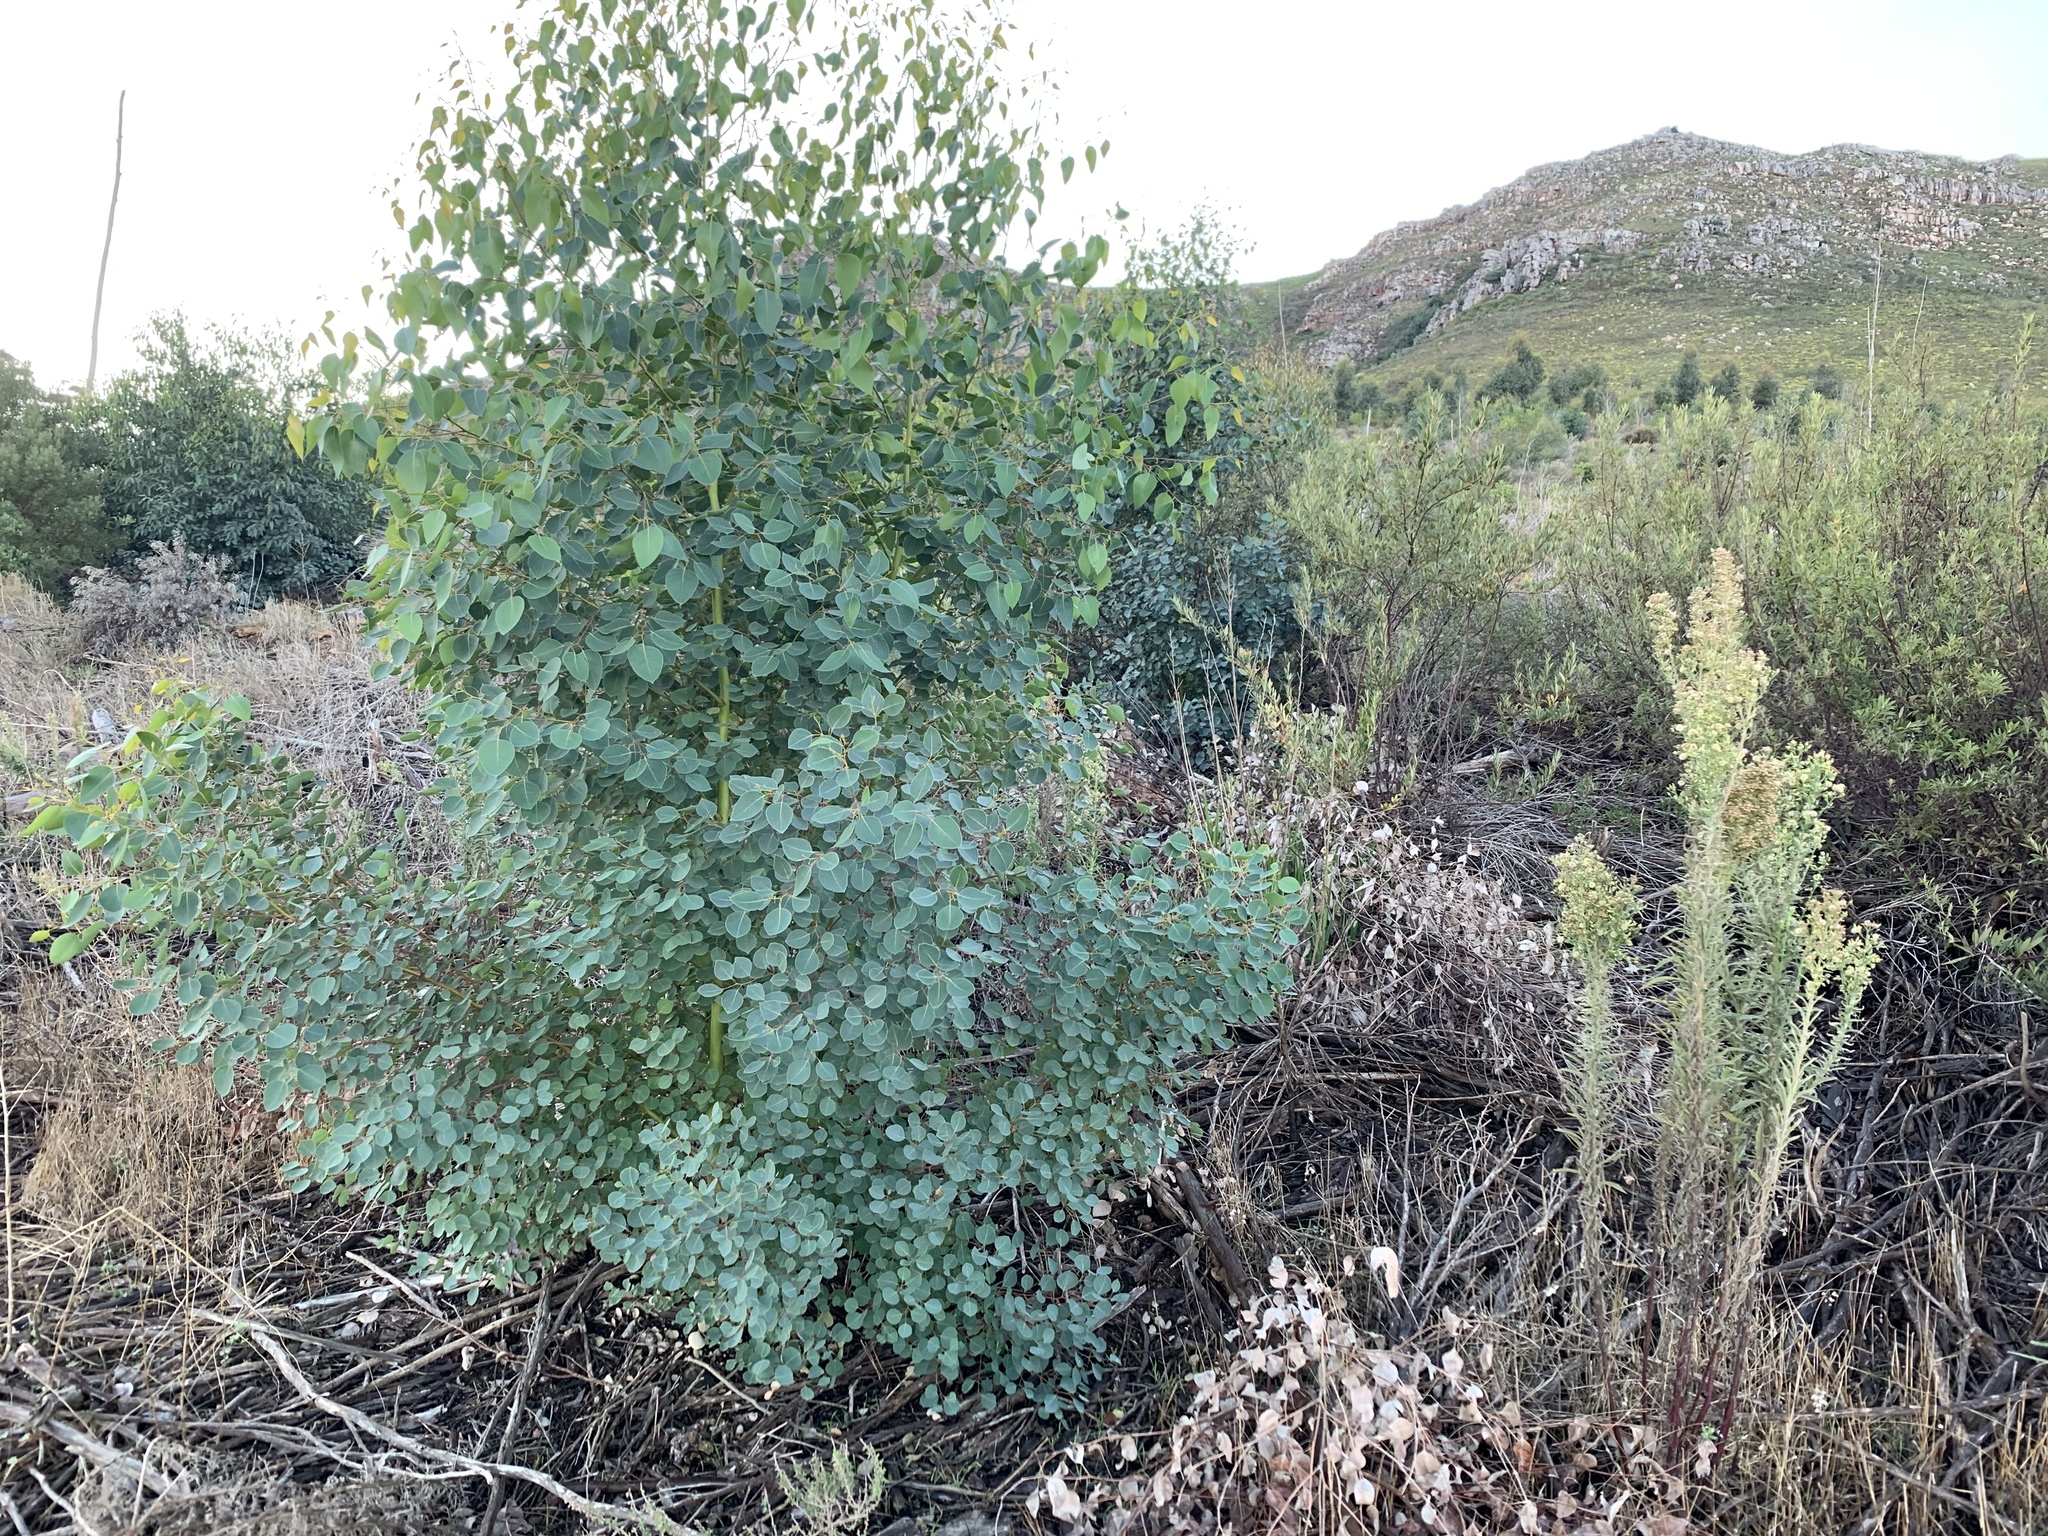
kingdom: Plantae
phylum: Tracheophyta
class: Magnoliopsida
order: Myrtales
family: Myrtaceae
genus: Eucalyptus
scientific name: Eucalyptus cladocalyx
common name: Sugargum
